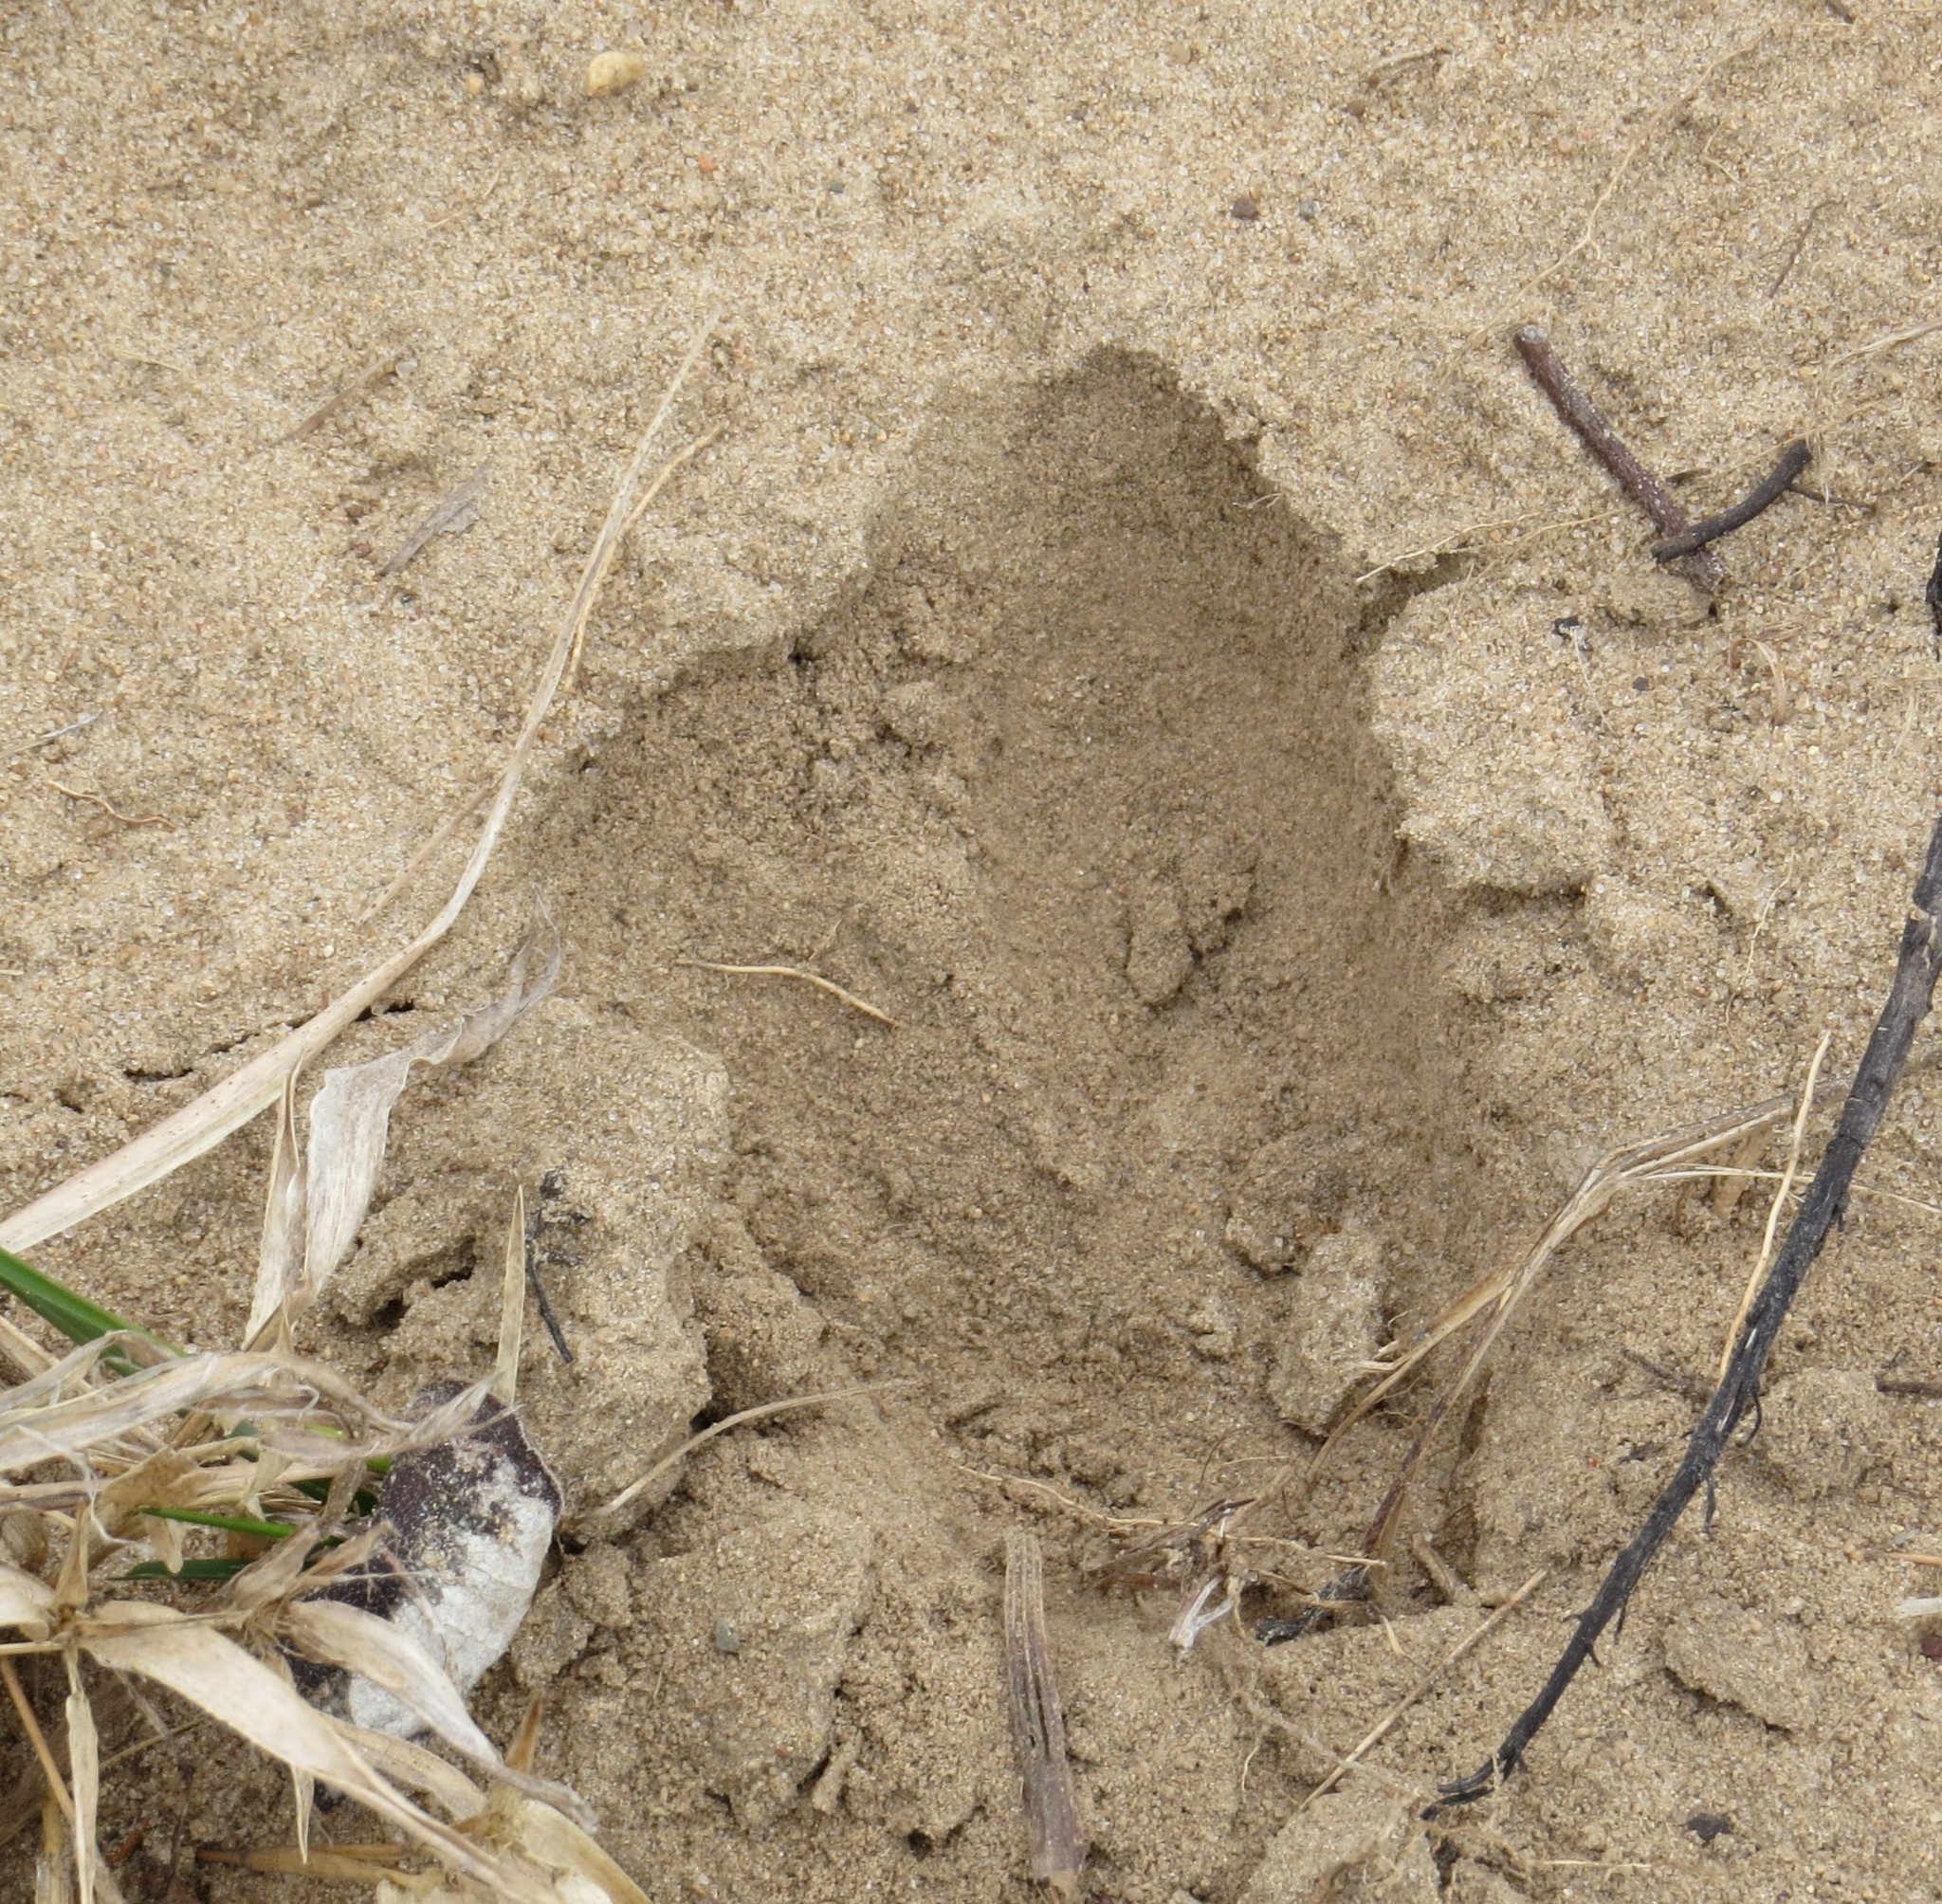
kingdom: Animalia
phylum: Chordata
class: Mammalia
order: Artiodactyla
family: Cervidae
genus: Odocoileus
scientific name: Odocoileus virginianus
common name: White-tailed deer
